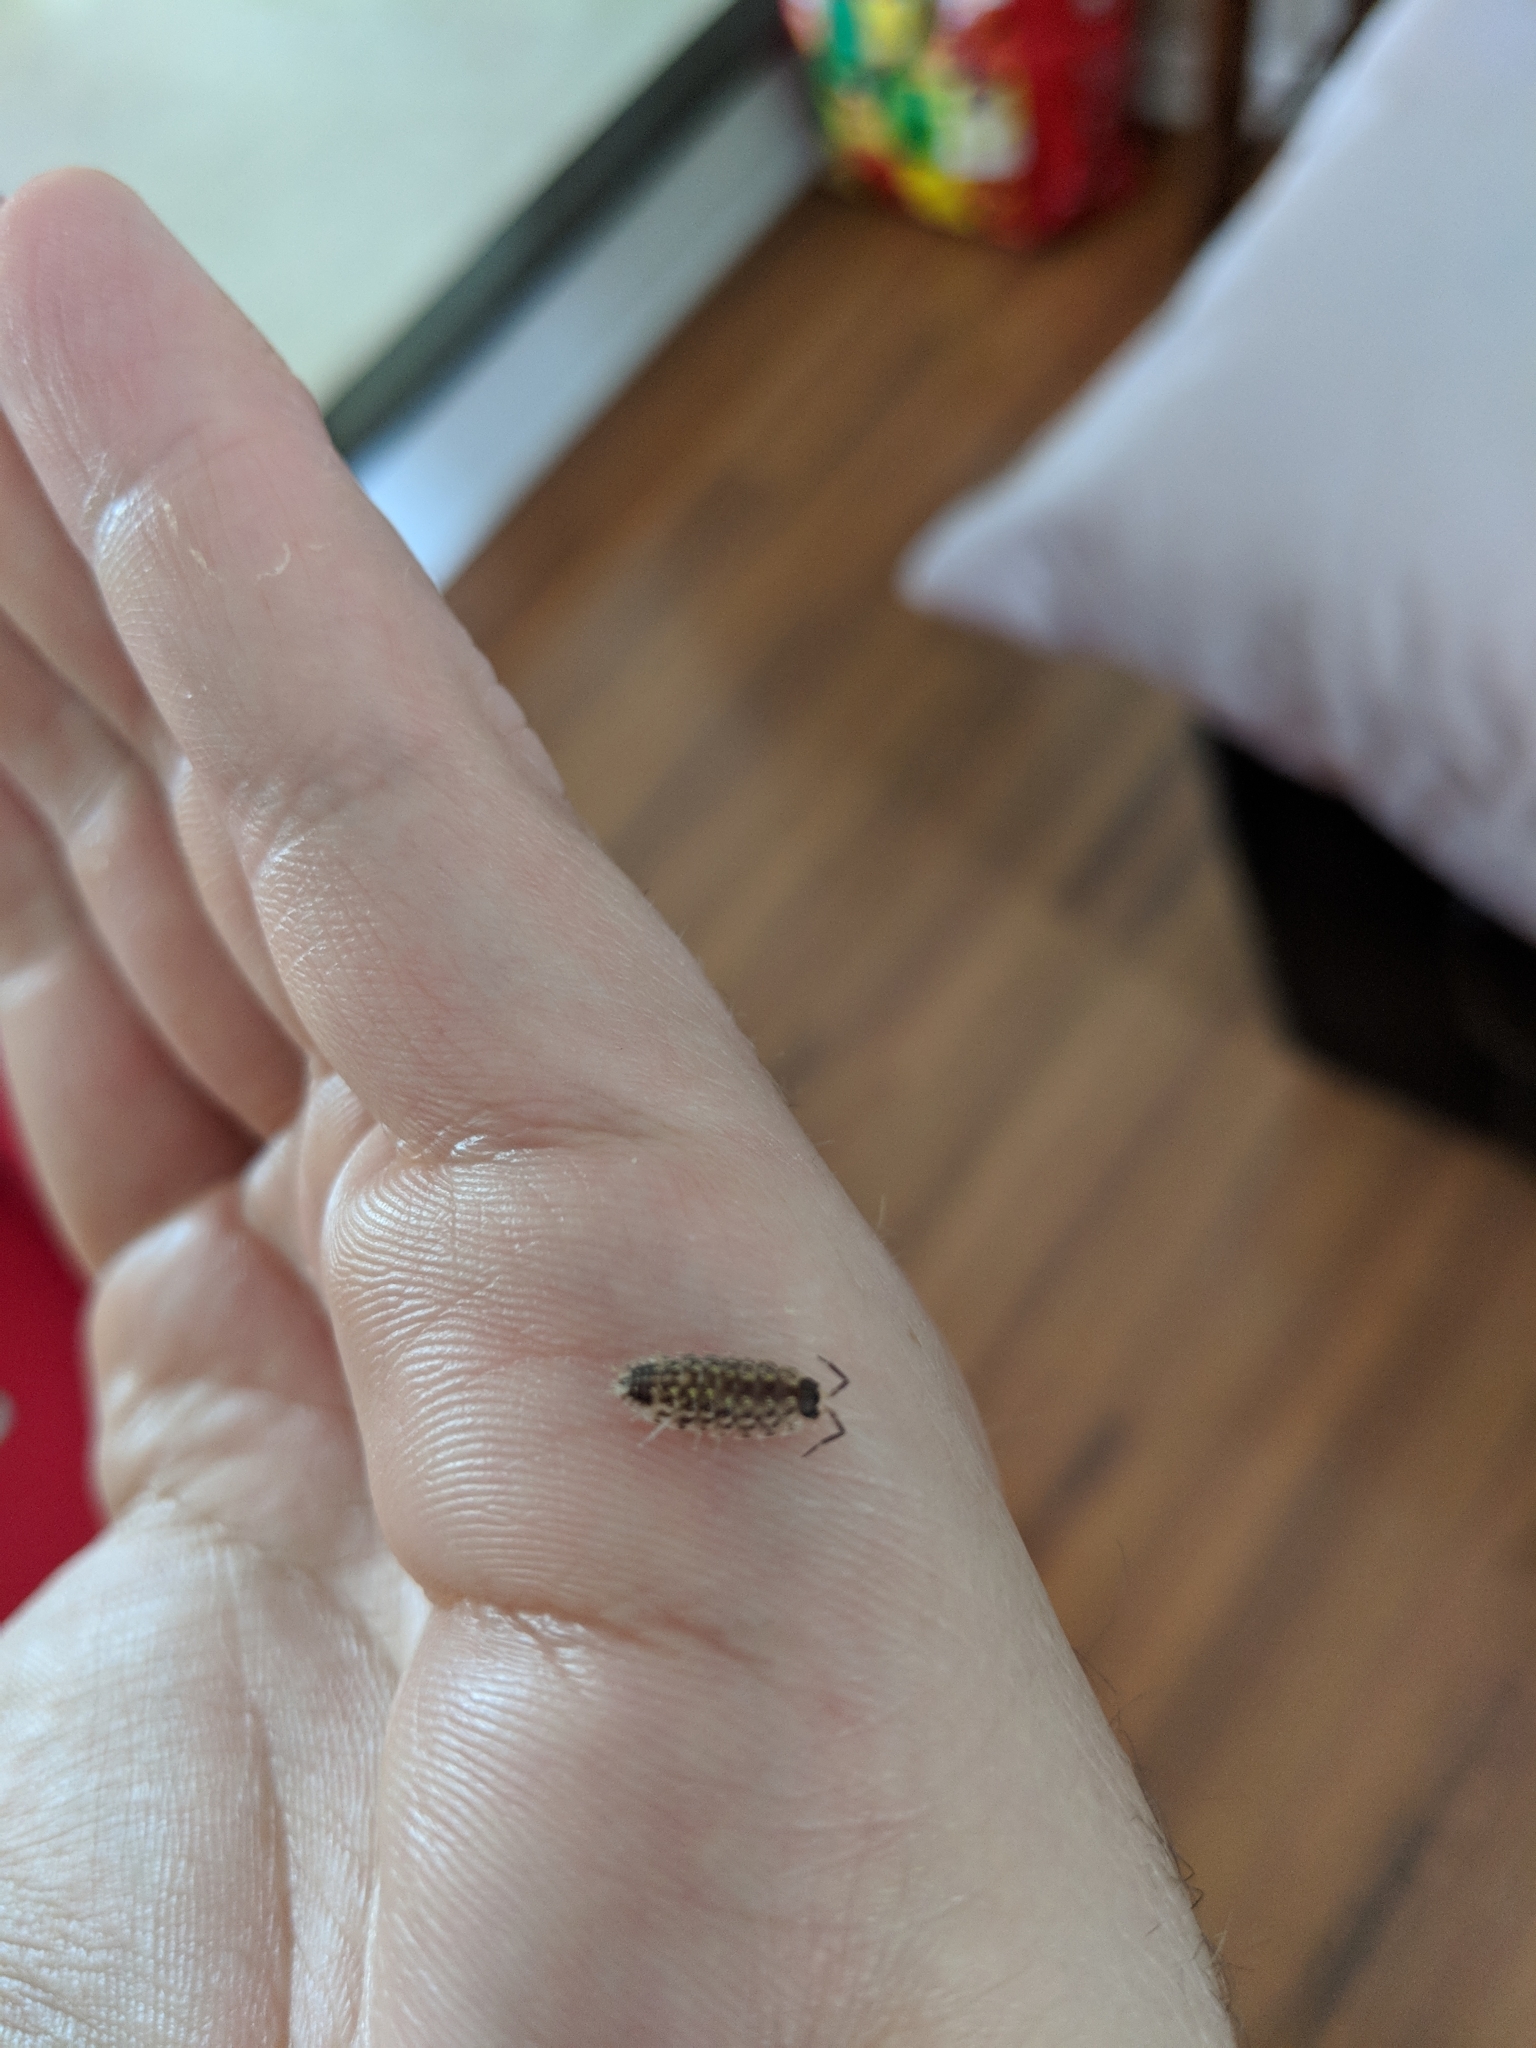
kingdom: Animalia
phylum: Arthropoda
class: Malacostraca
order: Isopoda
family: Porcellionidae
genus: Porcellio
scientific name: Porcellio spinicornis
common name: Painted woodlouse
